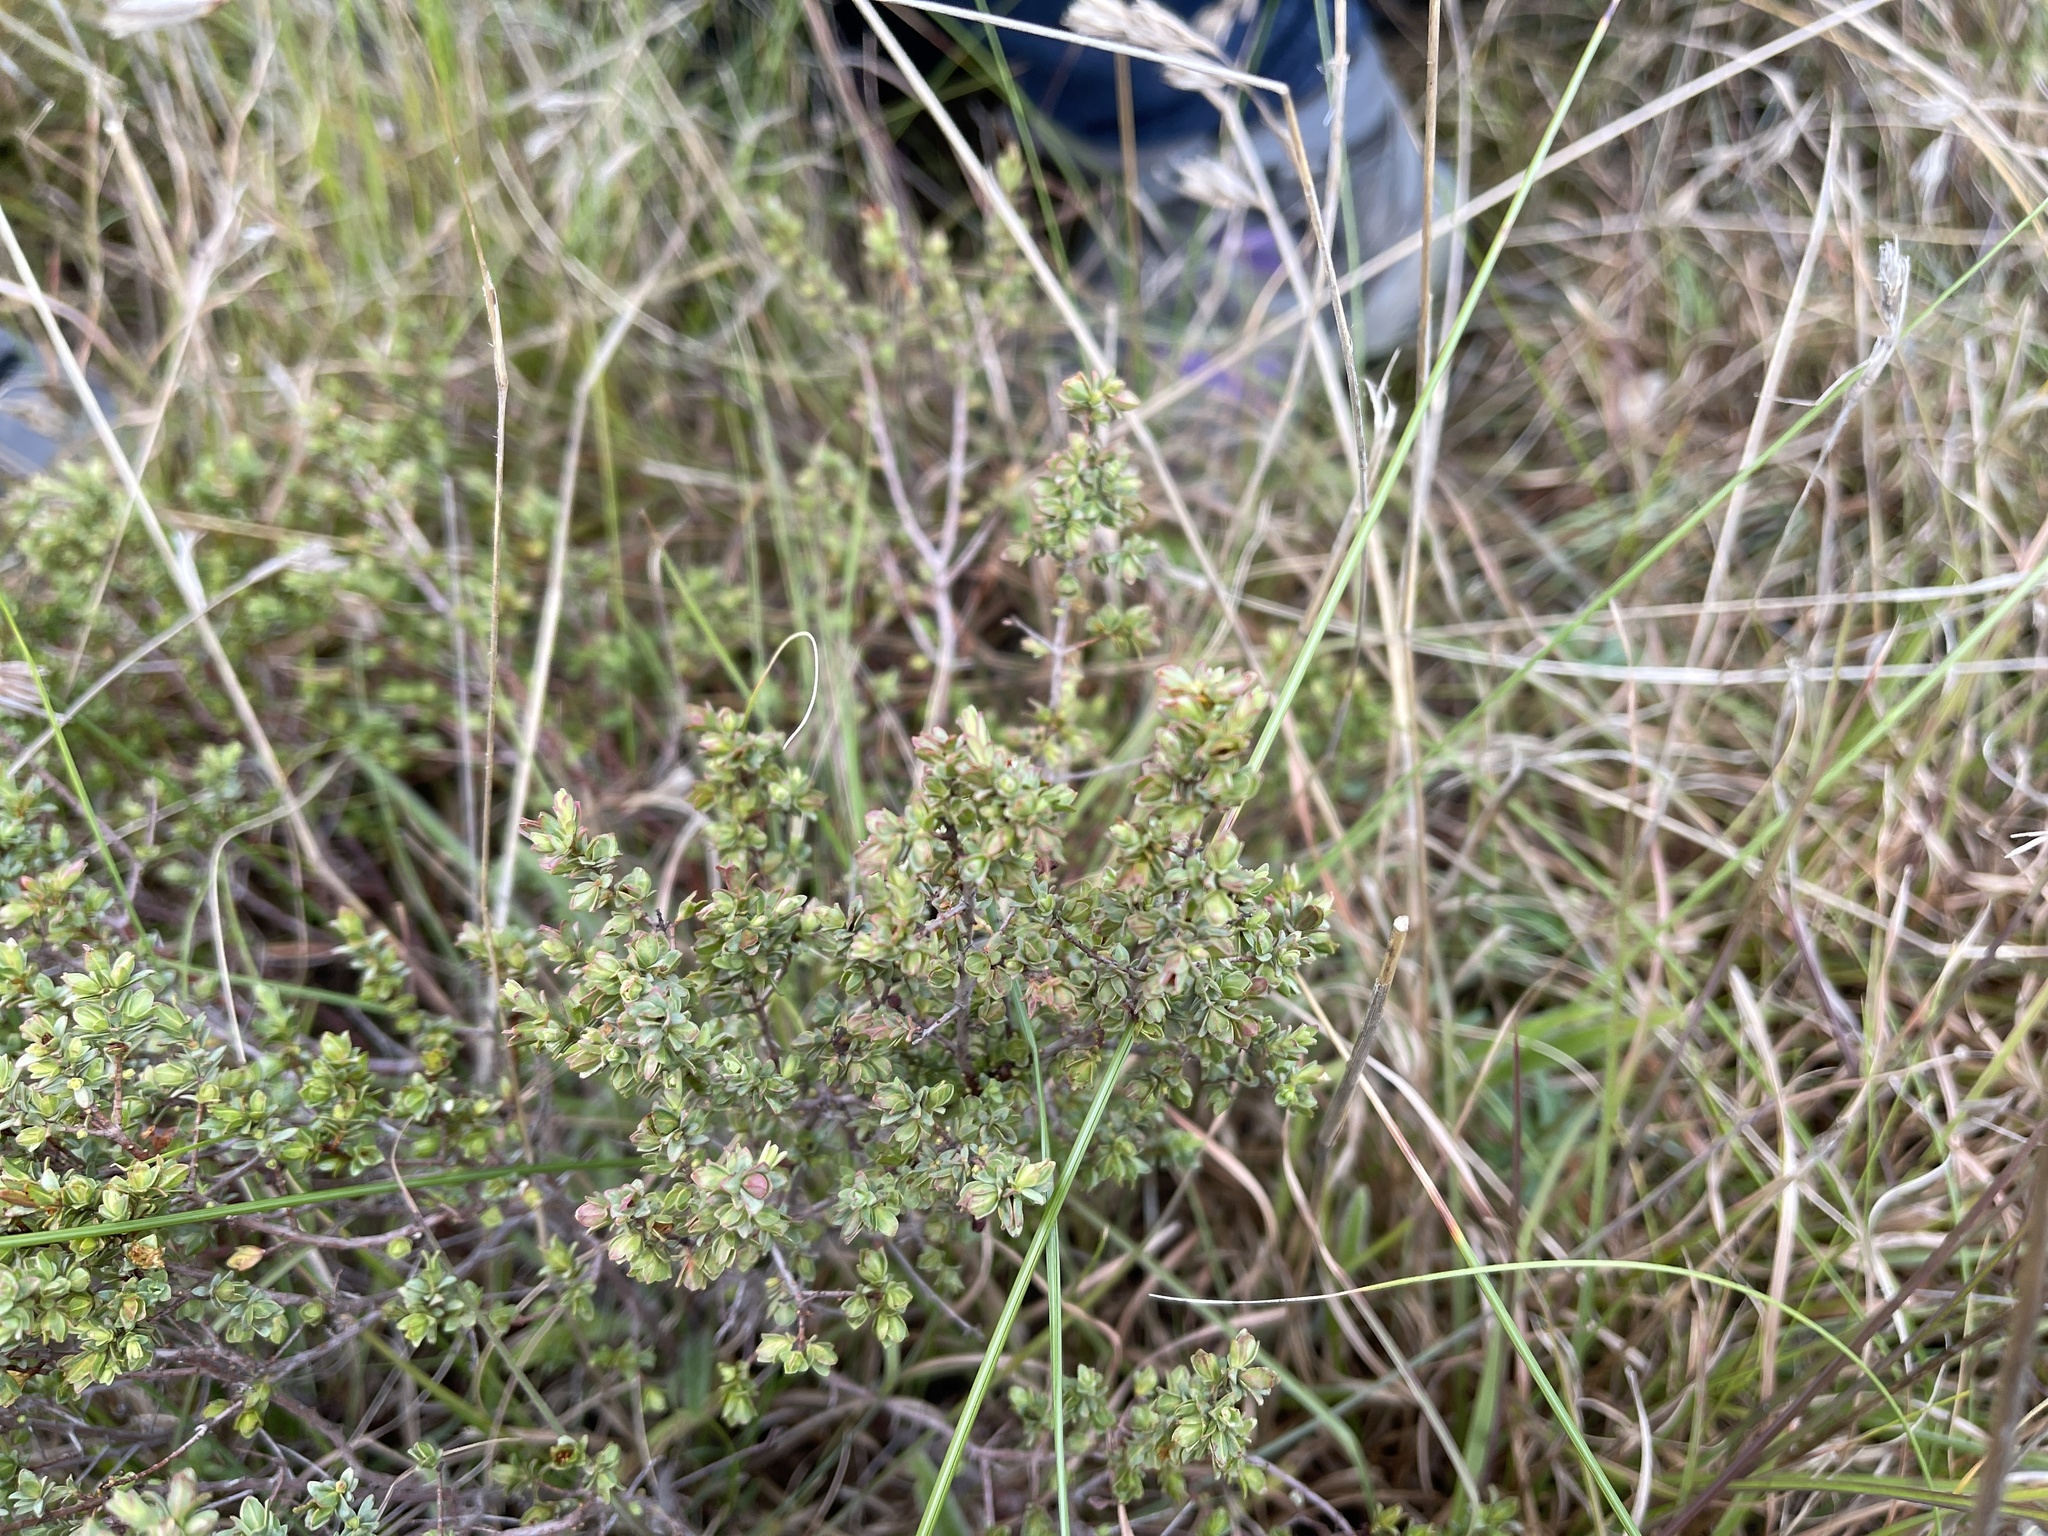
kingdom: Plantae
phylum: Tracheophyta
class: Magnoliopsida
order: Malvales
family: Thymelaeaceae
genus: Pimelea
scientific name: Pimelea spinescens
